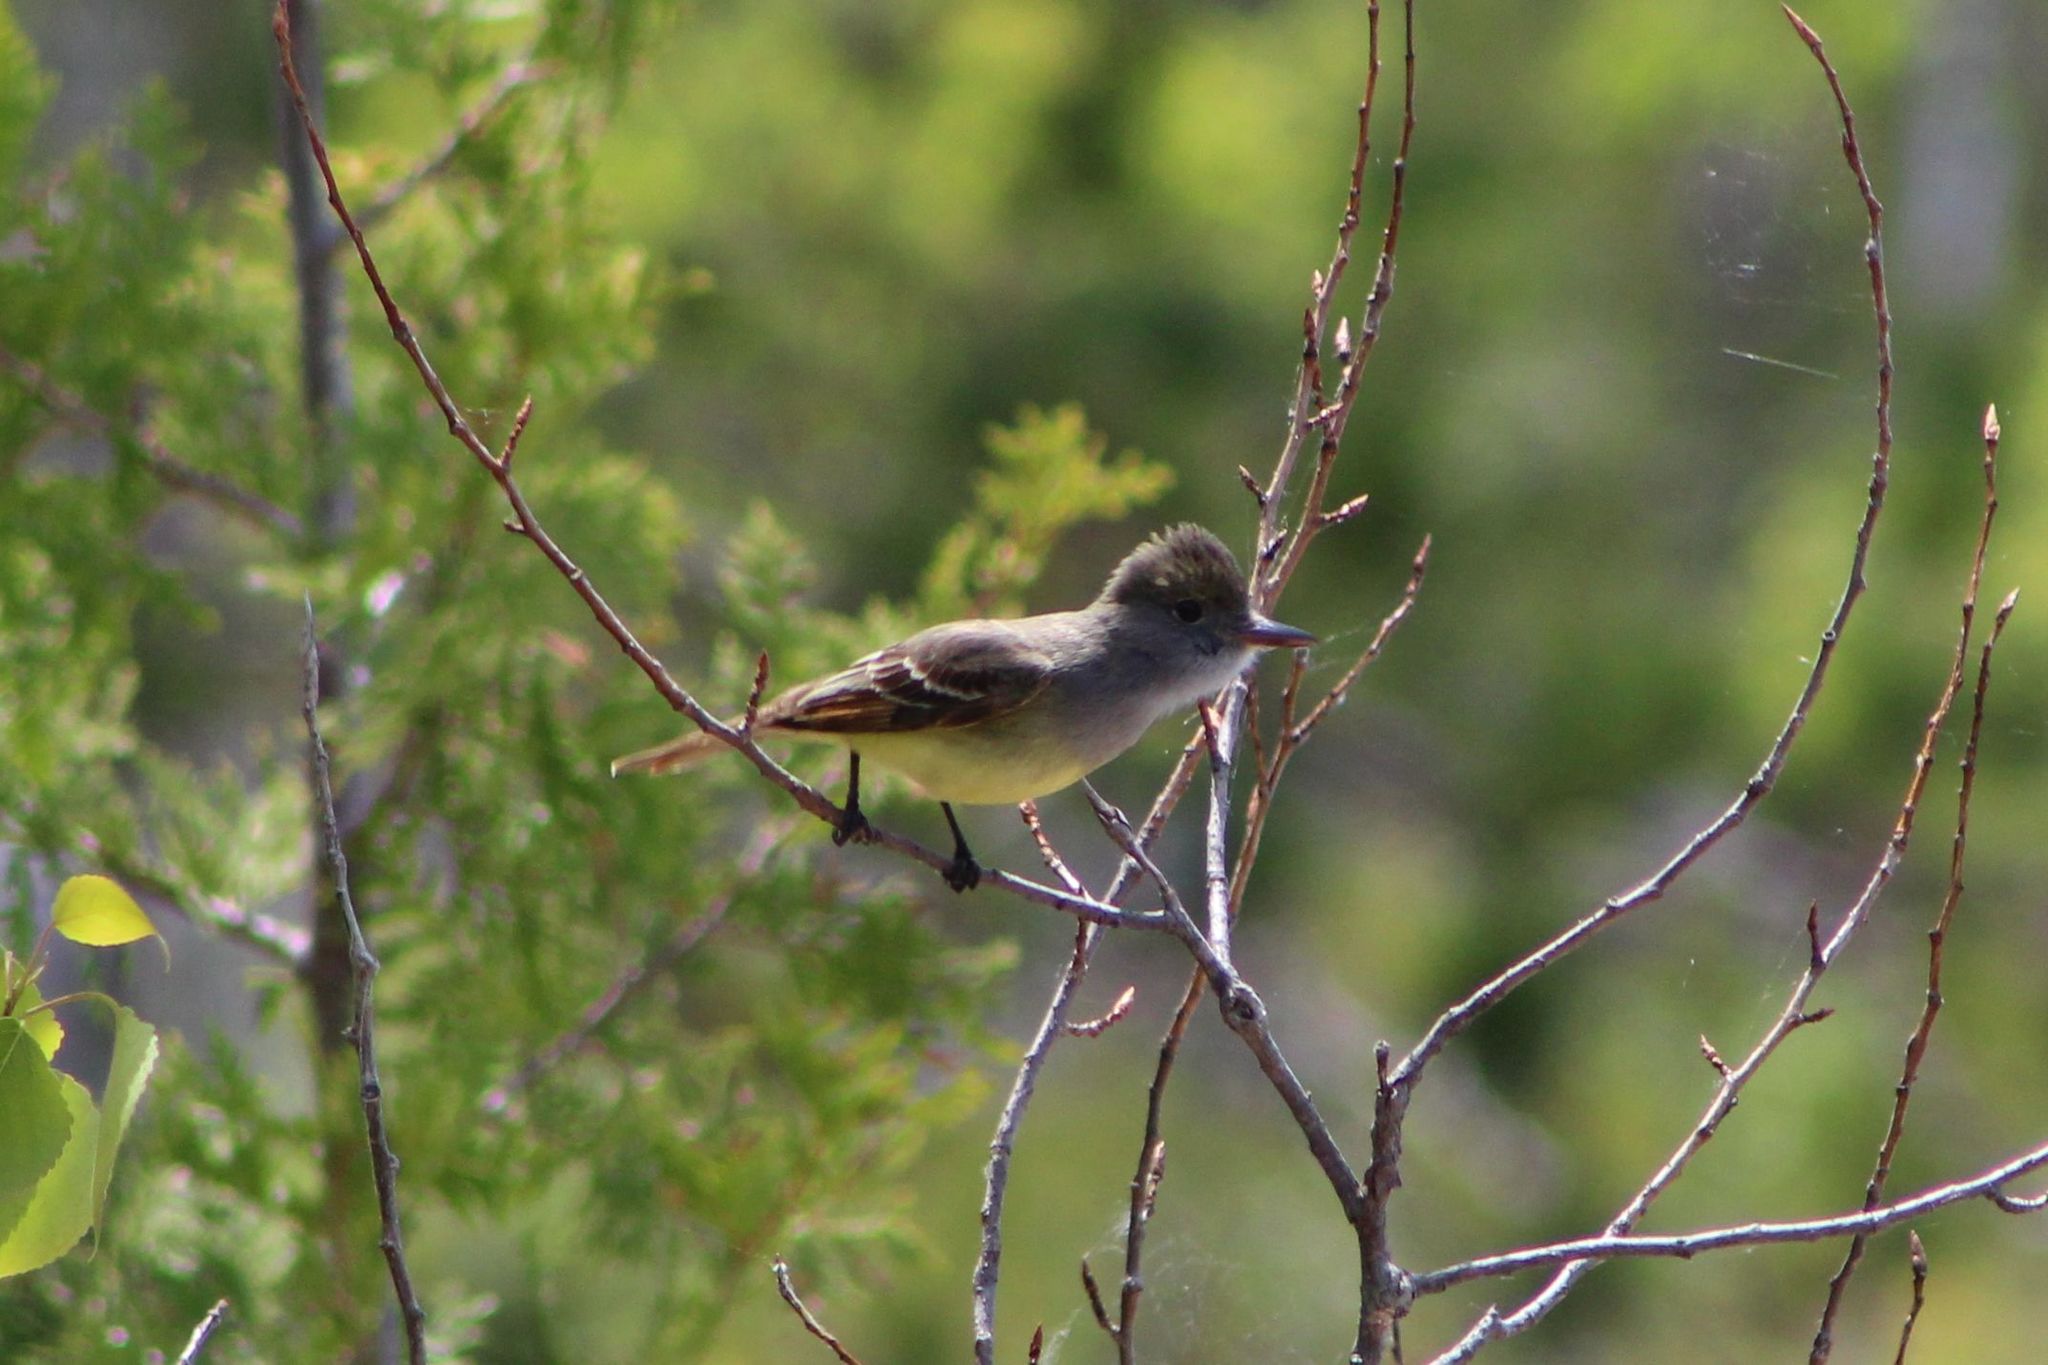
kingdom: Animalia
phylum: Chordata
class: Aves
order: Passeriformes
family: Tyrannidae
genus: Myiarchus
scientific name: Myiarchus crinitus
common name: Great crested flycatcher
